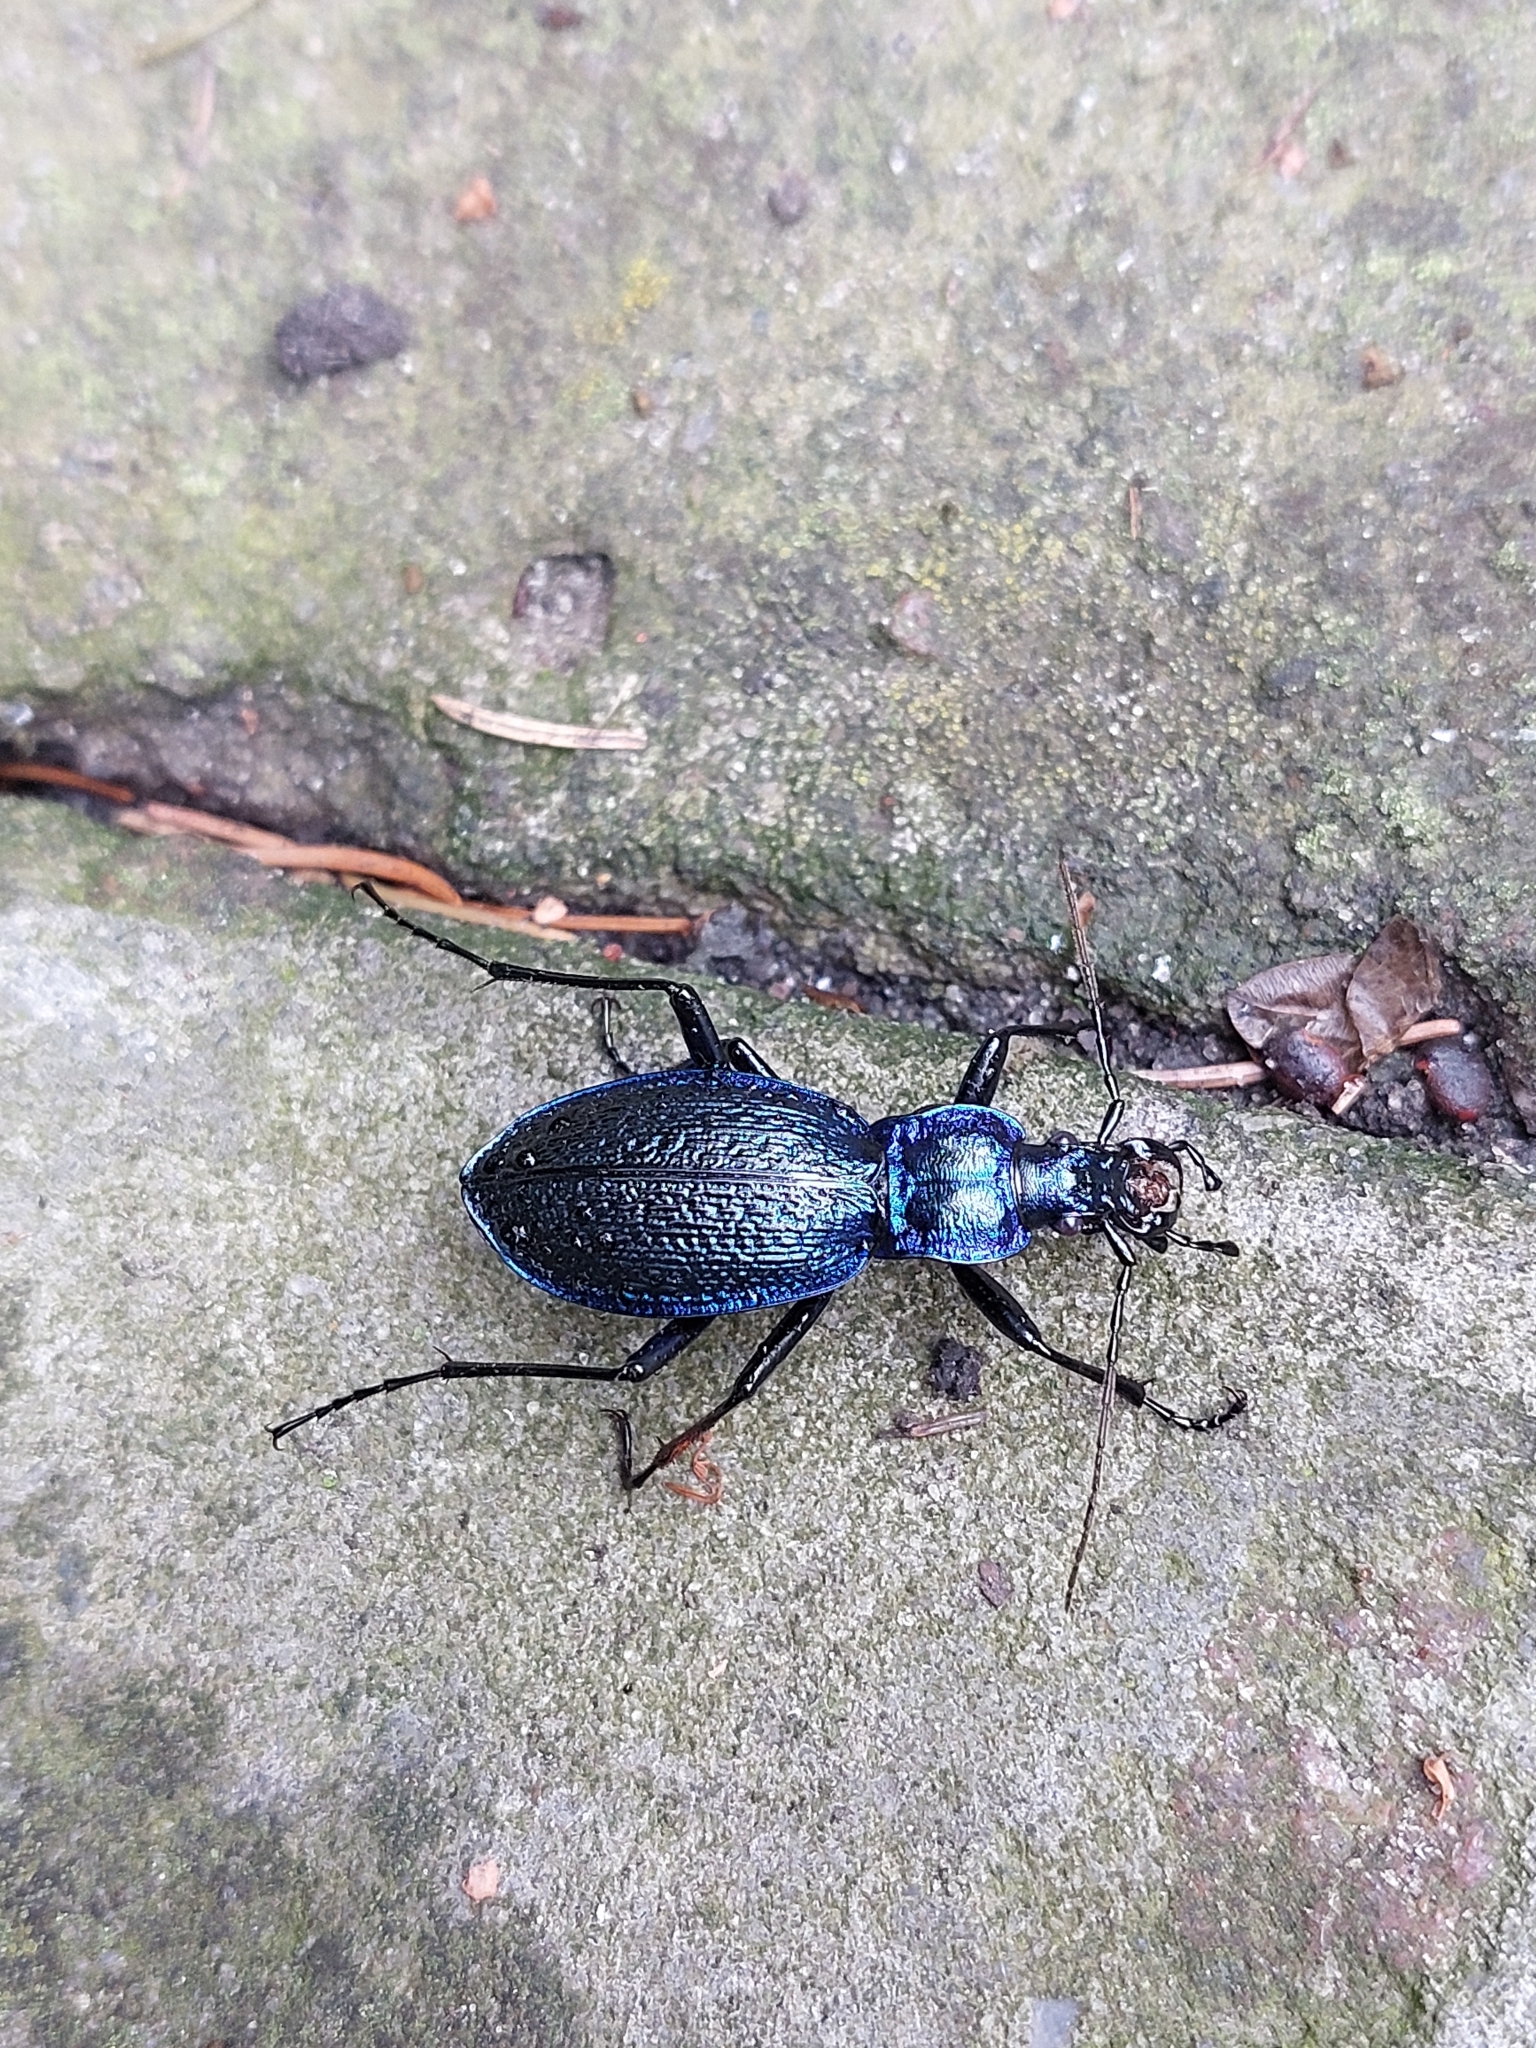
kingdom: Animalia
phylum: Arthropoda
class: Insecta
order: Coleoptera
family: Carabidae
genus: Carabus
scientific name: Carabus intricatus
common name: Blue ground beetle
